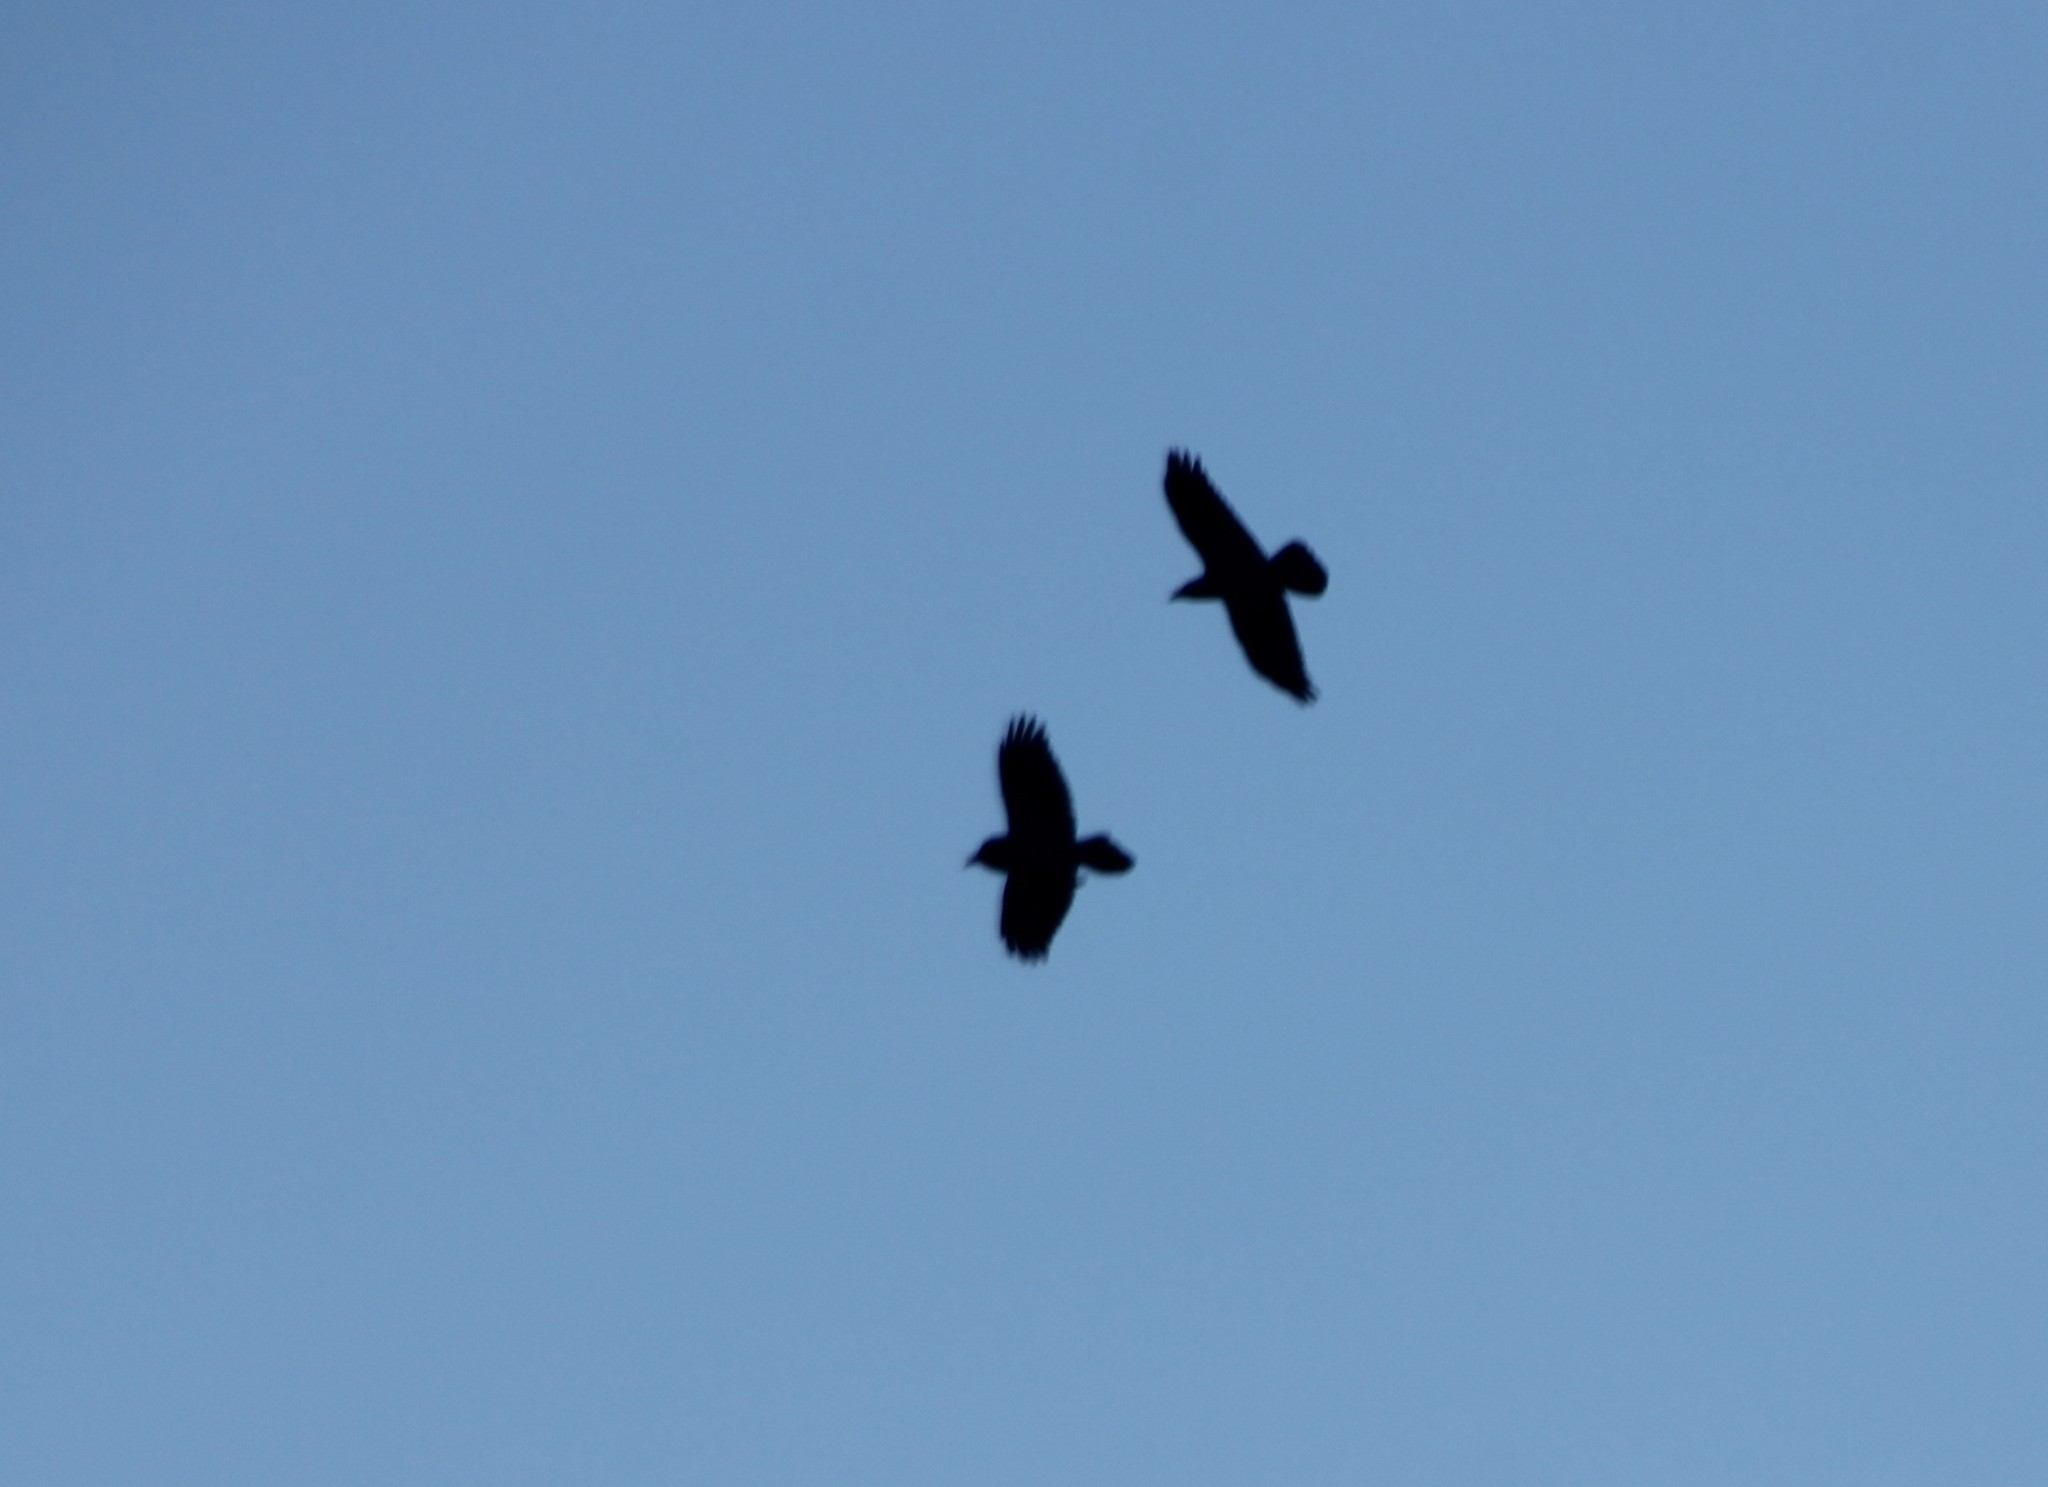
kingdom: Animalia
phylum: Chordata
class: Aves
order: Passeriformes
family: Corvidae
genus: Corvus
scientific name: Corvus corax
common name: Common raven
